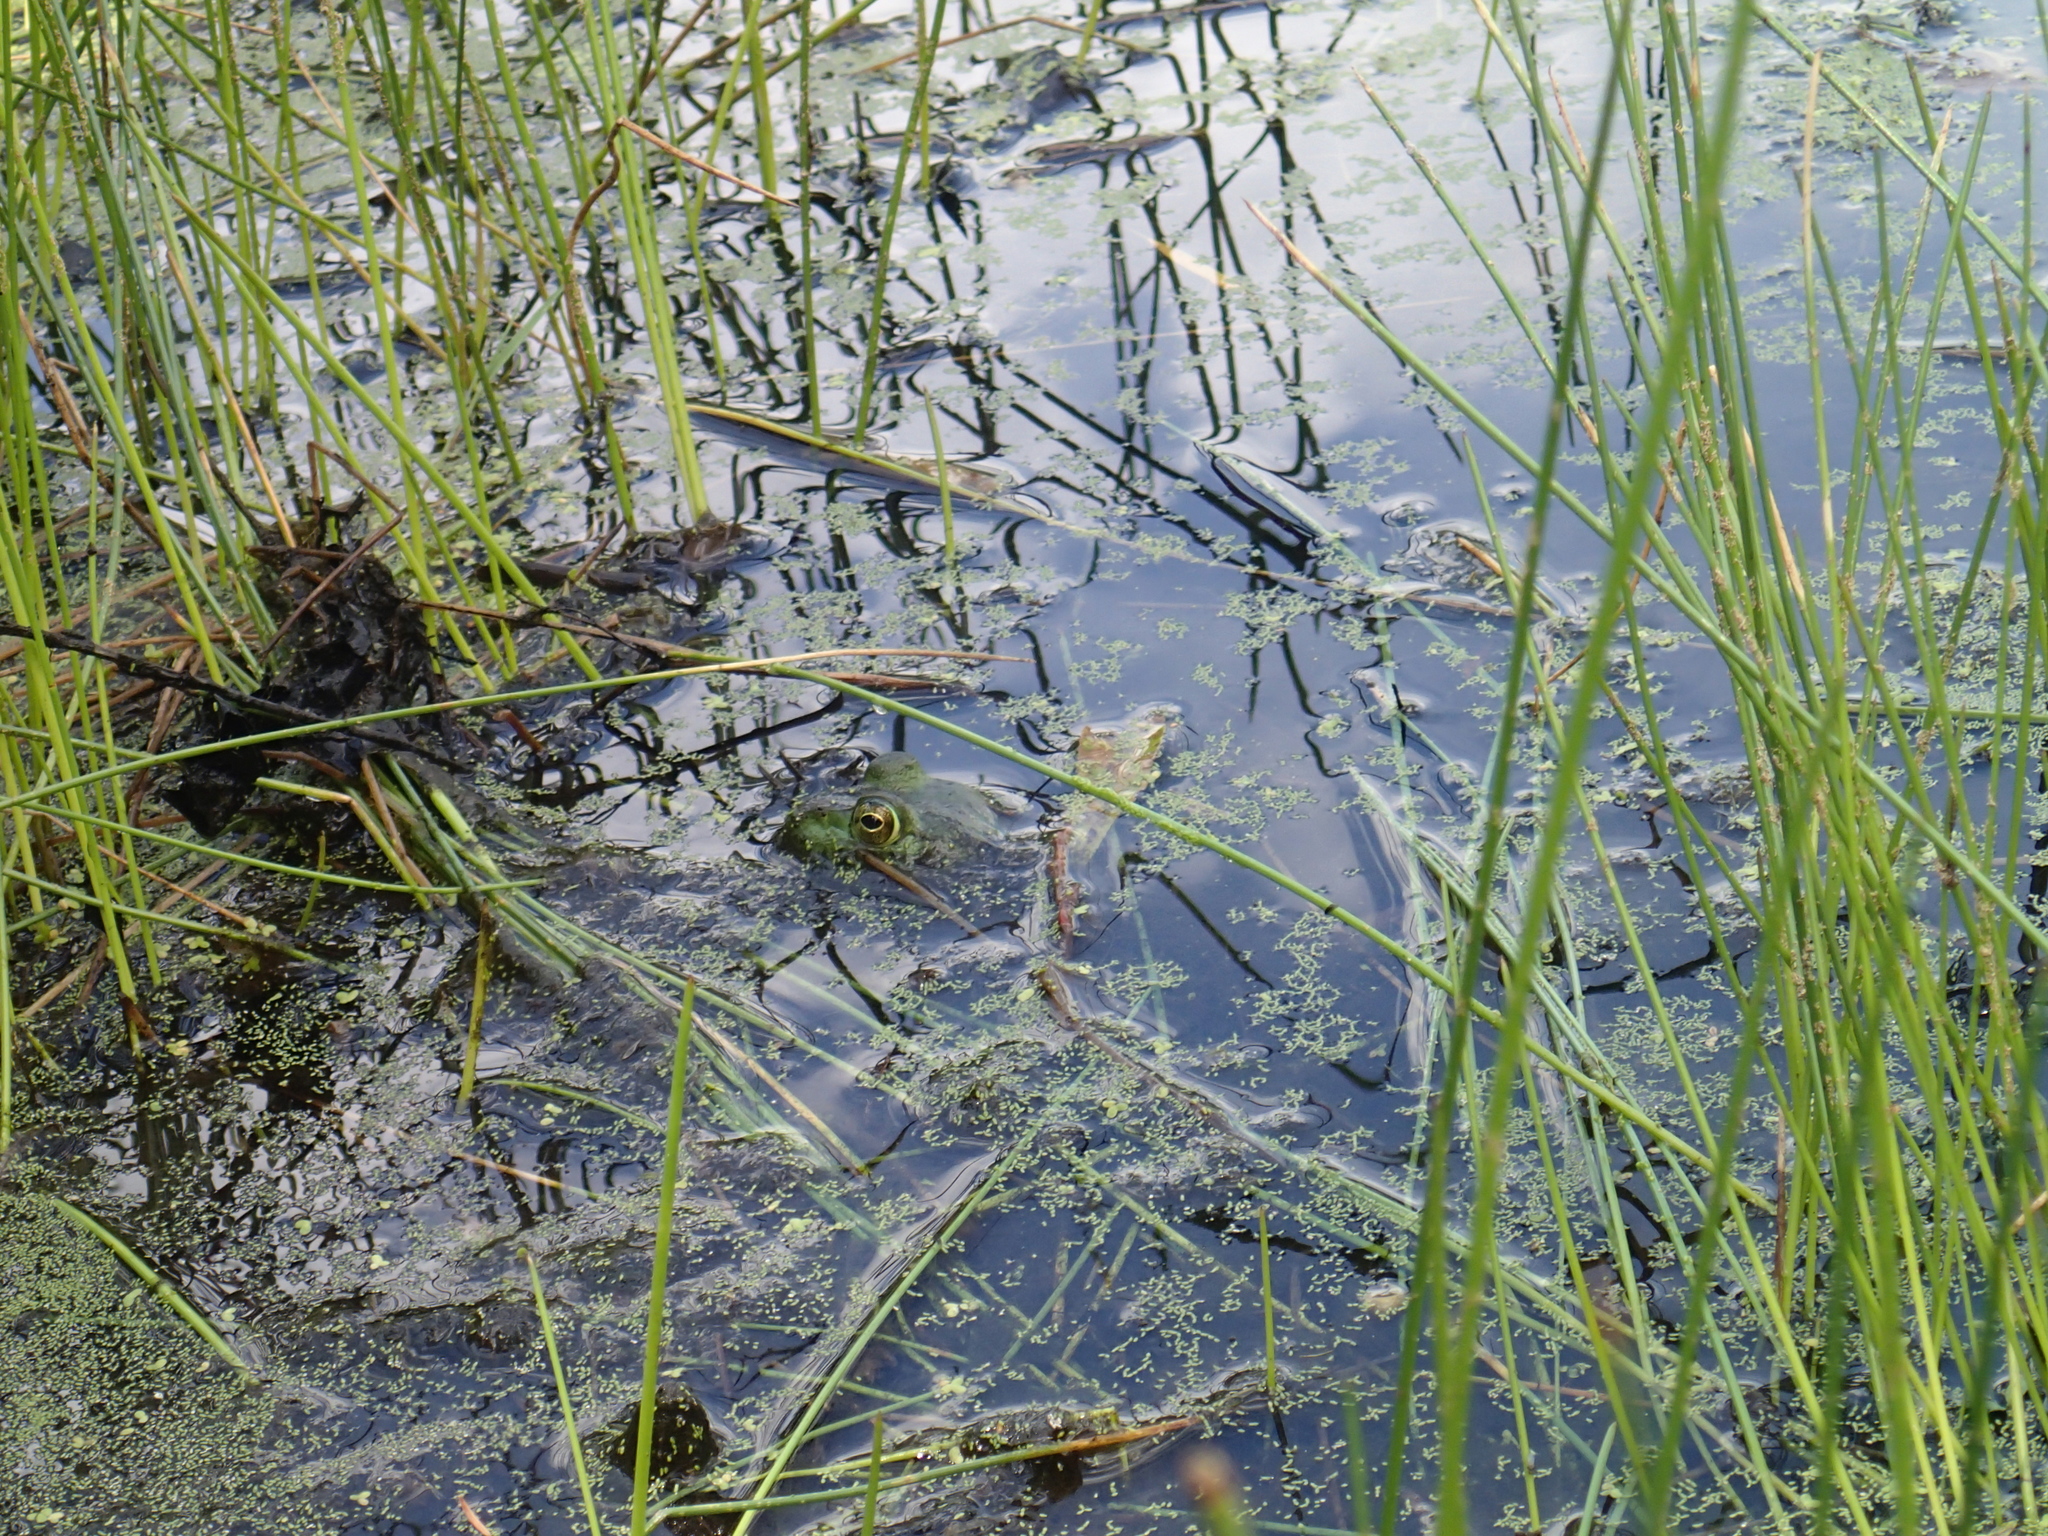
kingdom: Animalia
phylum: Chordata
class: Amphibia
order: Anura
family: Ranidae
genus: Lithobates
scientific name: Lithobates
